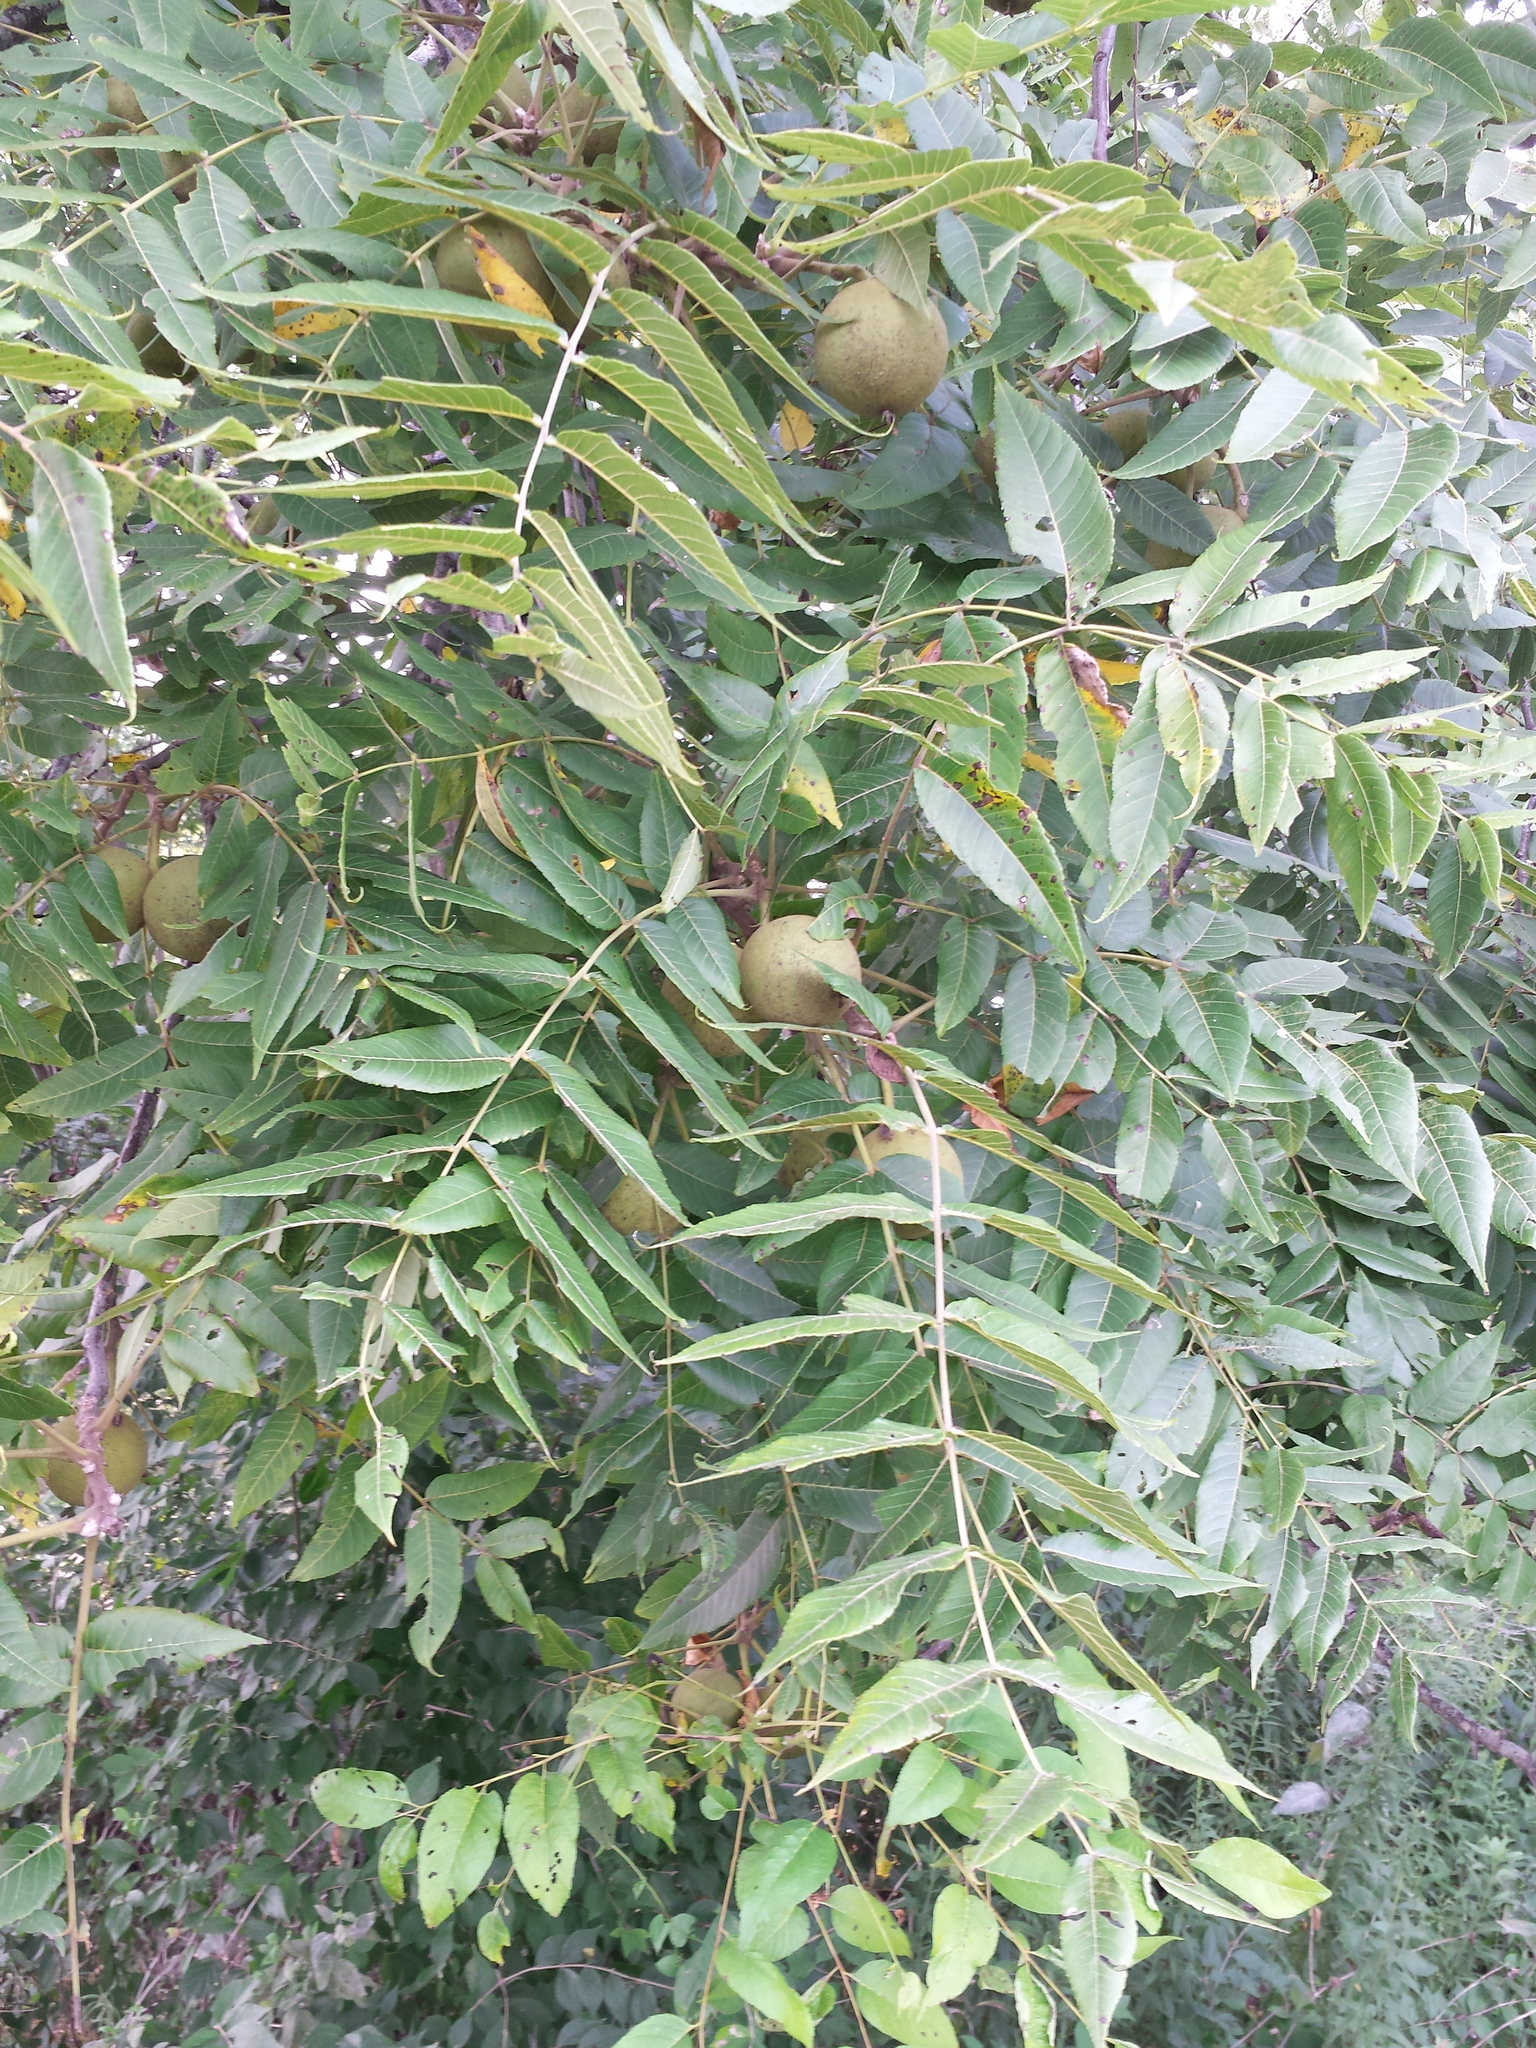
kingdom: Plantae
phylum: Tracheophyta
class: Magnoliopsida
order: Fagales
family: Juglandaceae
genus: Juglans
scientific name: Juglans nigra
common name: Black walnut
